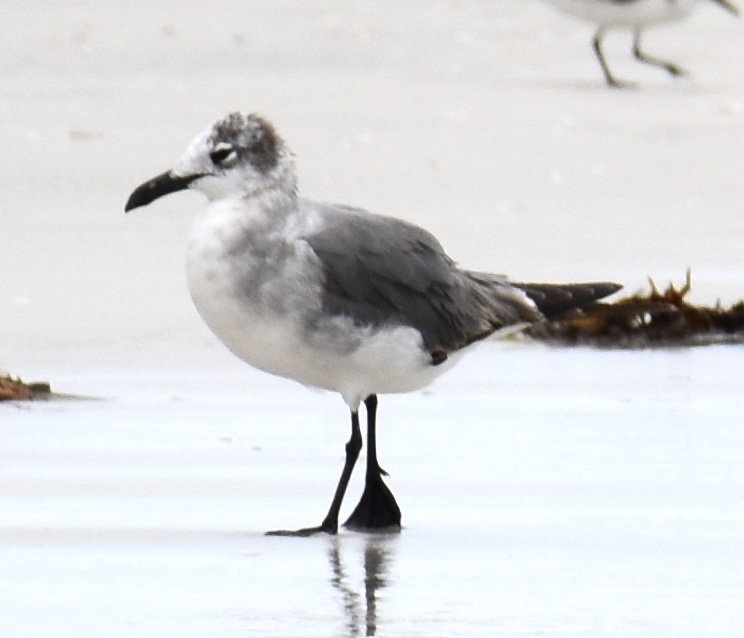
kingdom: Animalia
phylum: Chordata
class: Aves
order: Charadriiformes
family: Laridae
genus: Leucophaeus
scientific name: Leucophaeus atricilla
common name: Laughing gull
